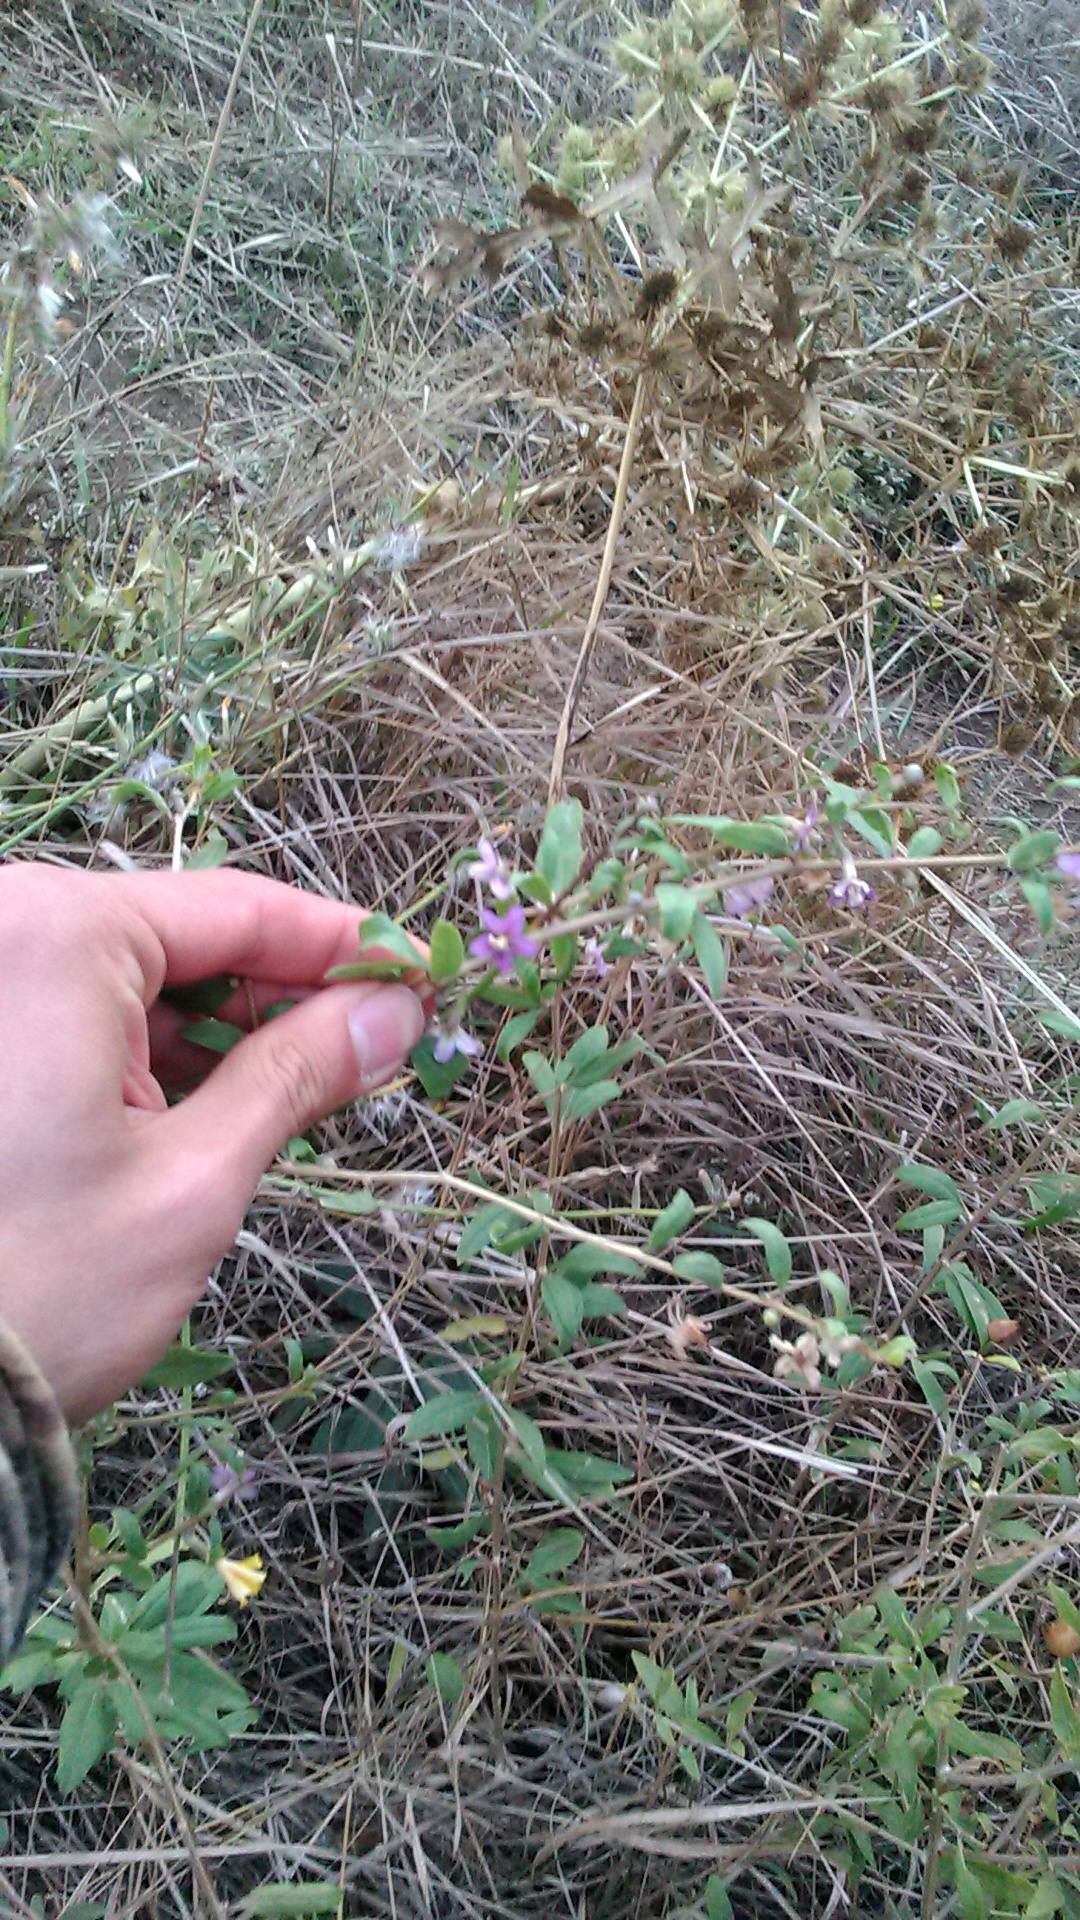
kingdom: Plantae
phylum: Tracheophyta
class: Magnoliopsida
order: Solanales
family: Solanaceae
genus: Lycium
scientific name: Lycium barbarum
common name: Duke of argyll's teaplant
